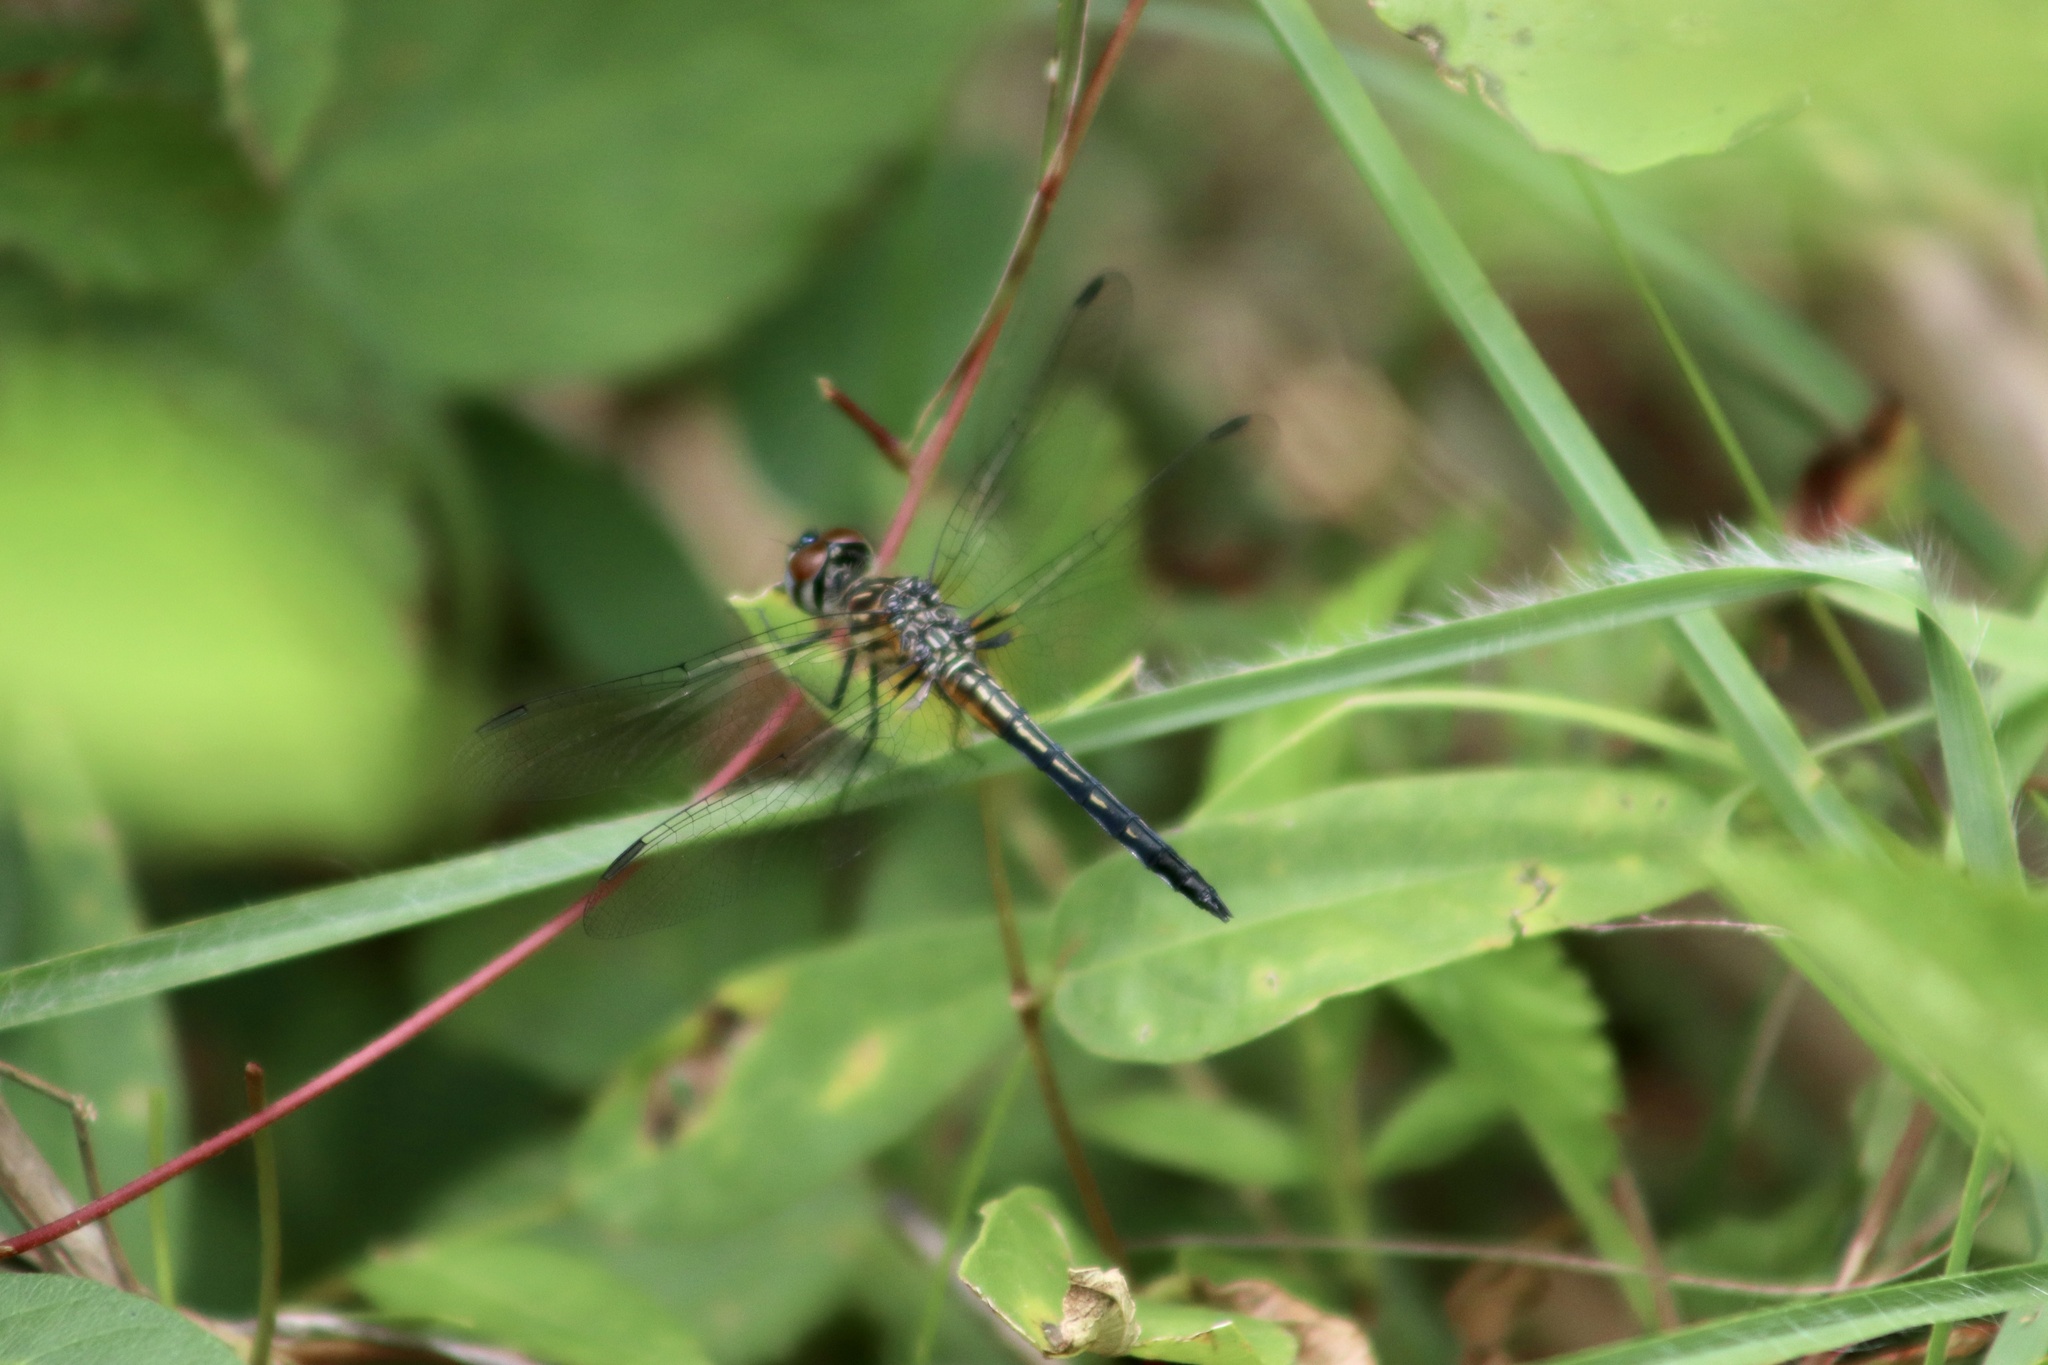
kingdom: Animalia
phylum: Arthropoda
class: Insecta
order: Odonata
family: Libellulidae
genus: Pachydiplax
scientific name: Pachydiplax longipennis
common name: Blue dasher
